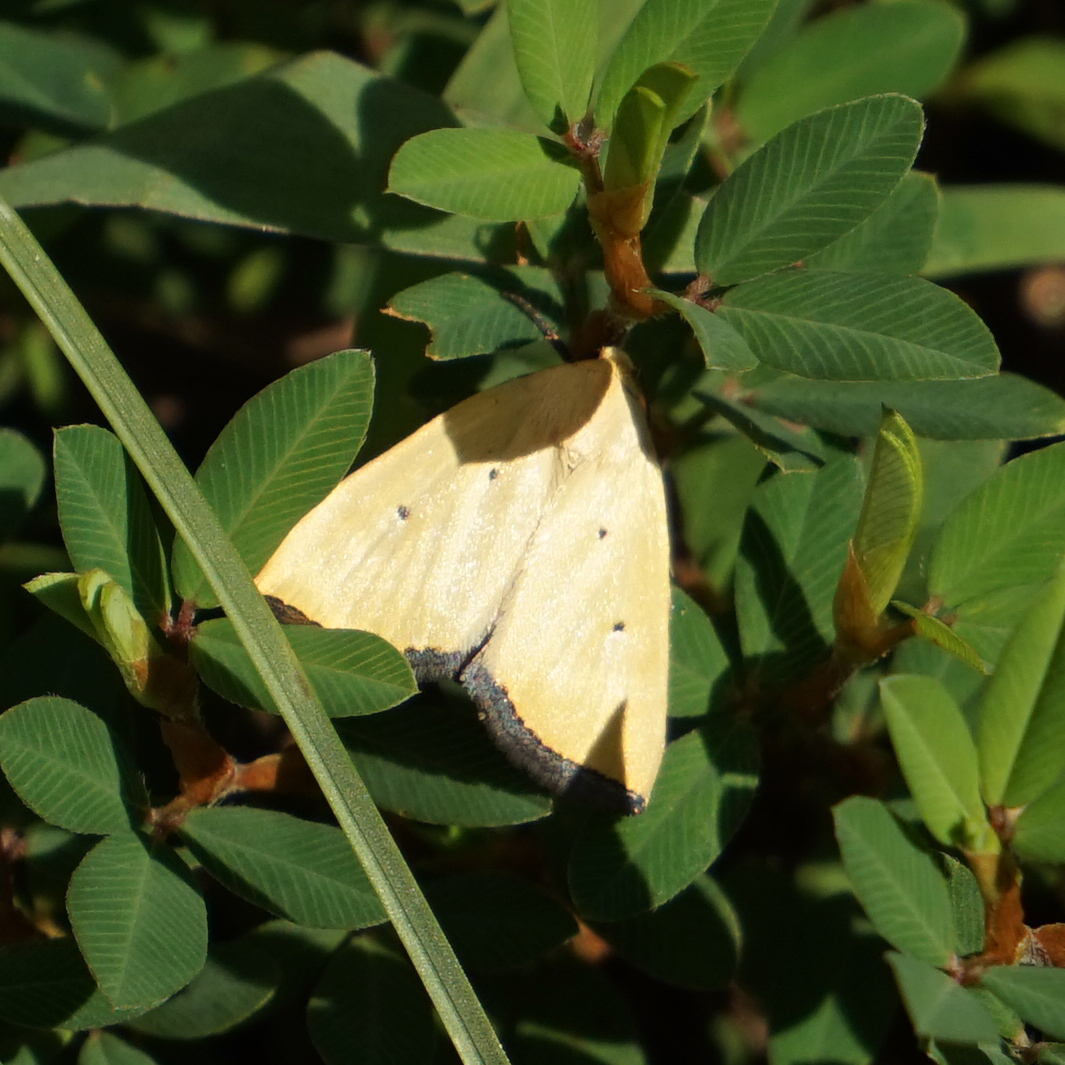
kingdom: Animalia
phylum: Arthropoda
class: Insecta
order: Lepidoptera
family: Noctuidae
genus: Marimatha
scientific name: Marimatha nigrofimbria
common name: Black-bordered lemon moth
